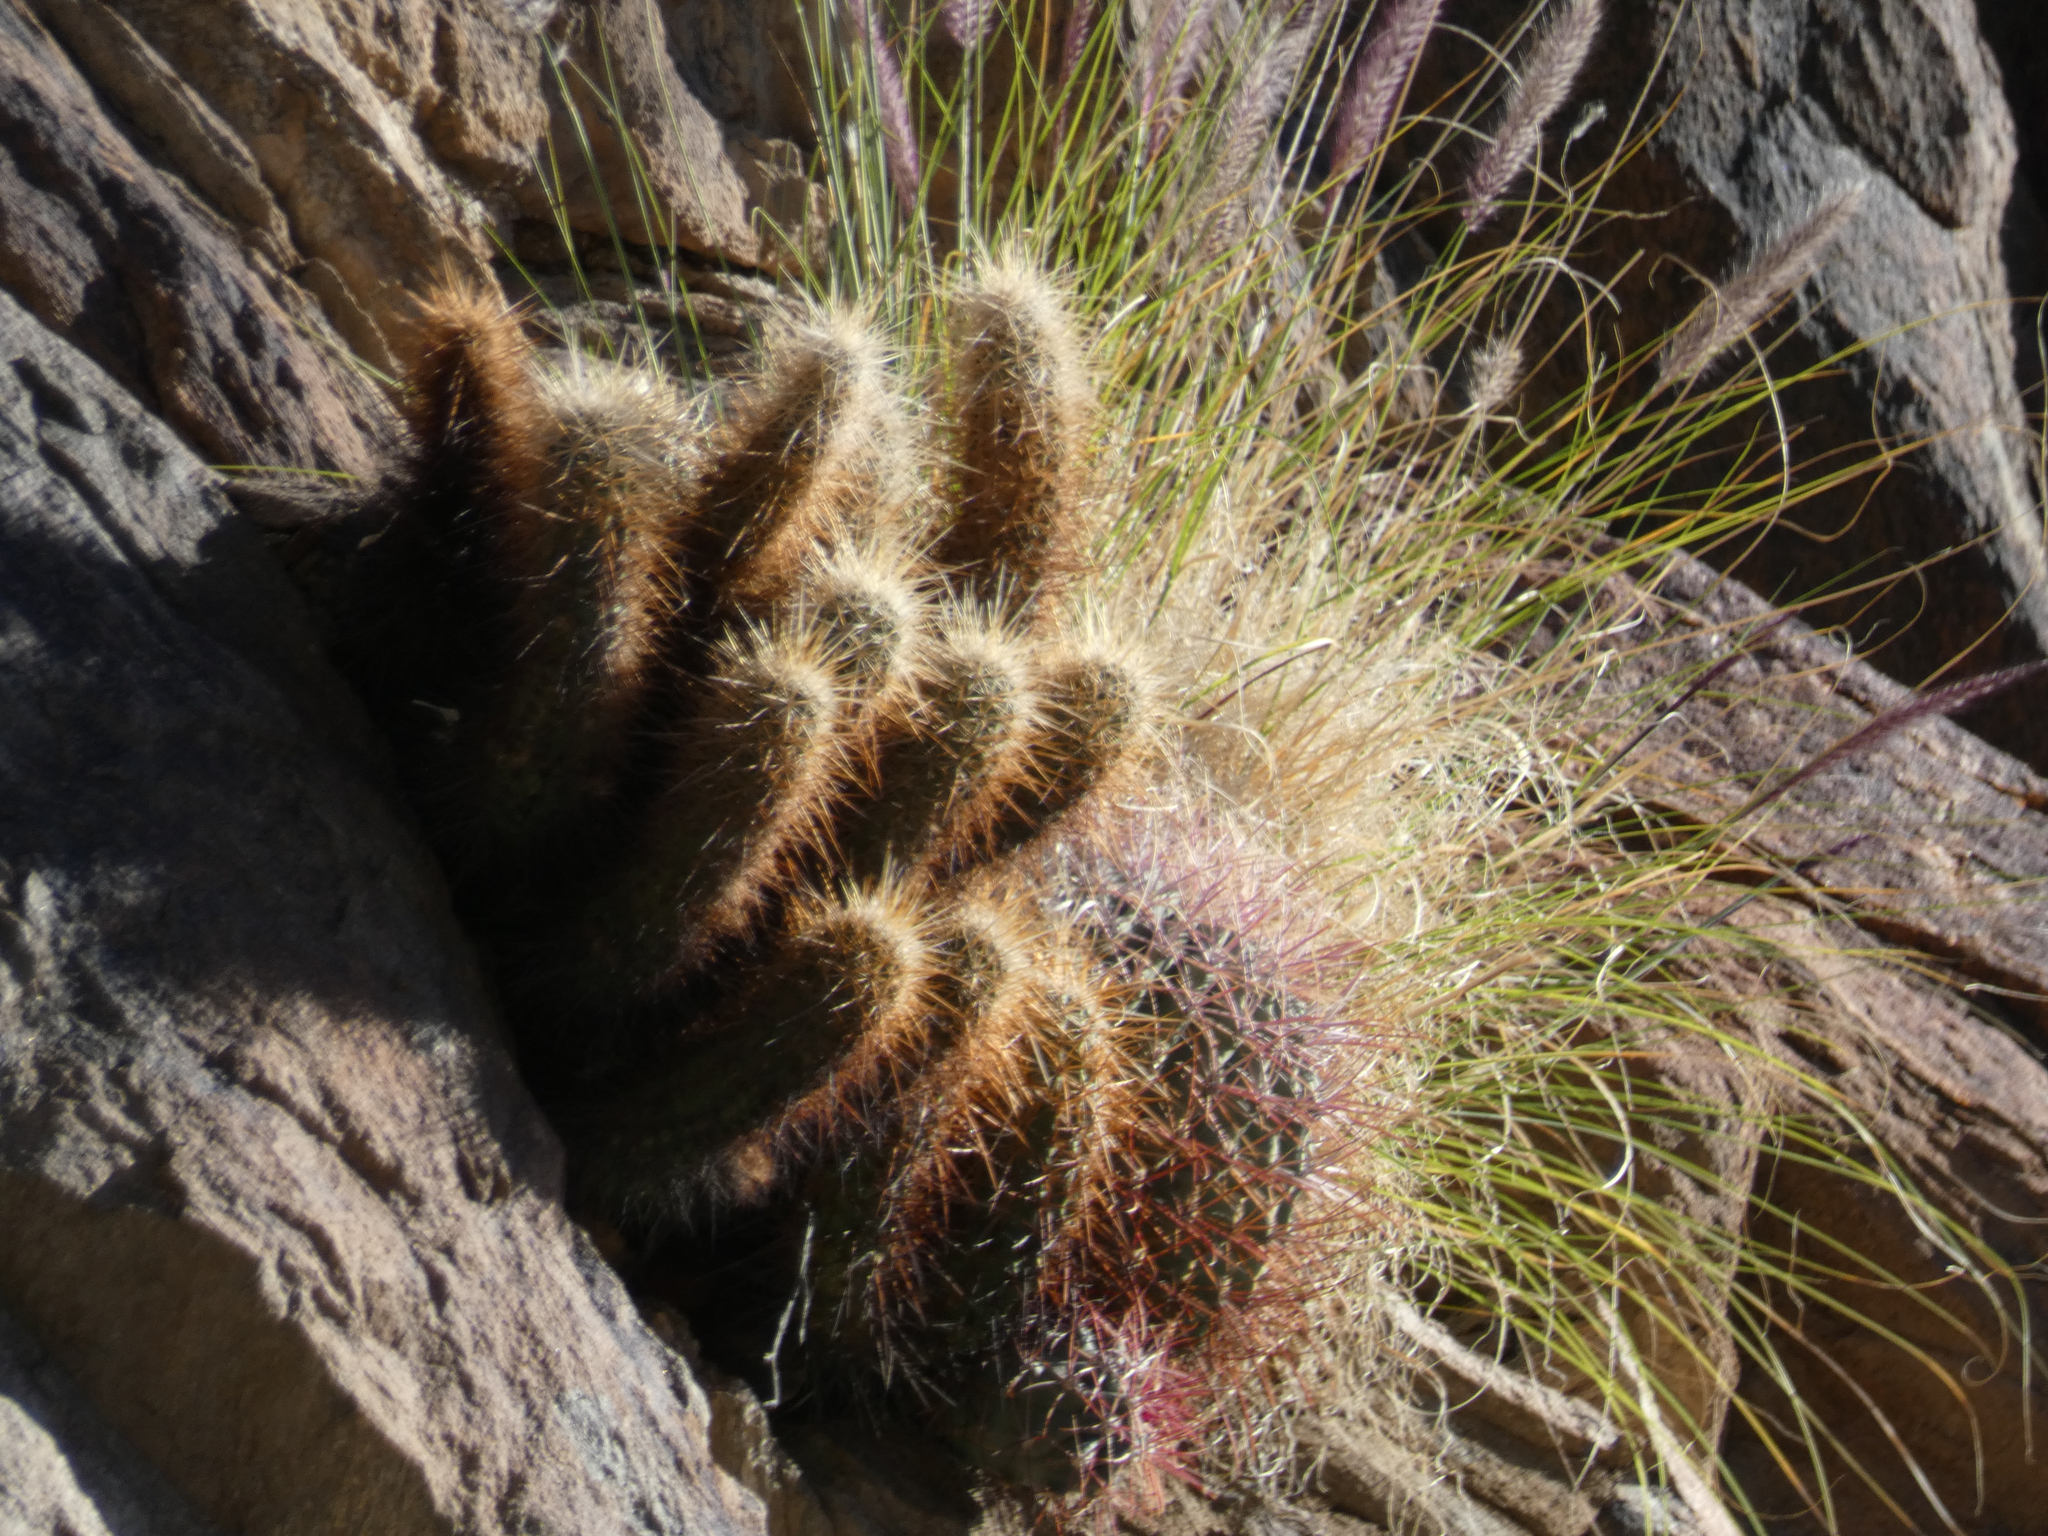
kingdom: Plantae
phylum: Tracheophyta
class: Magnoliopsida
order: Caryophyllales
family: Cactaceae
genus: Echinocereus
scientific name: Echinocereus engelmannii
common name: Engelmann's hedgehog cactus
